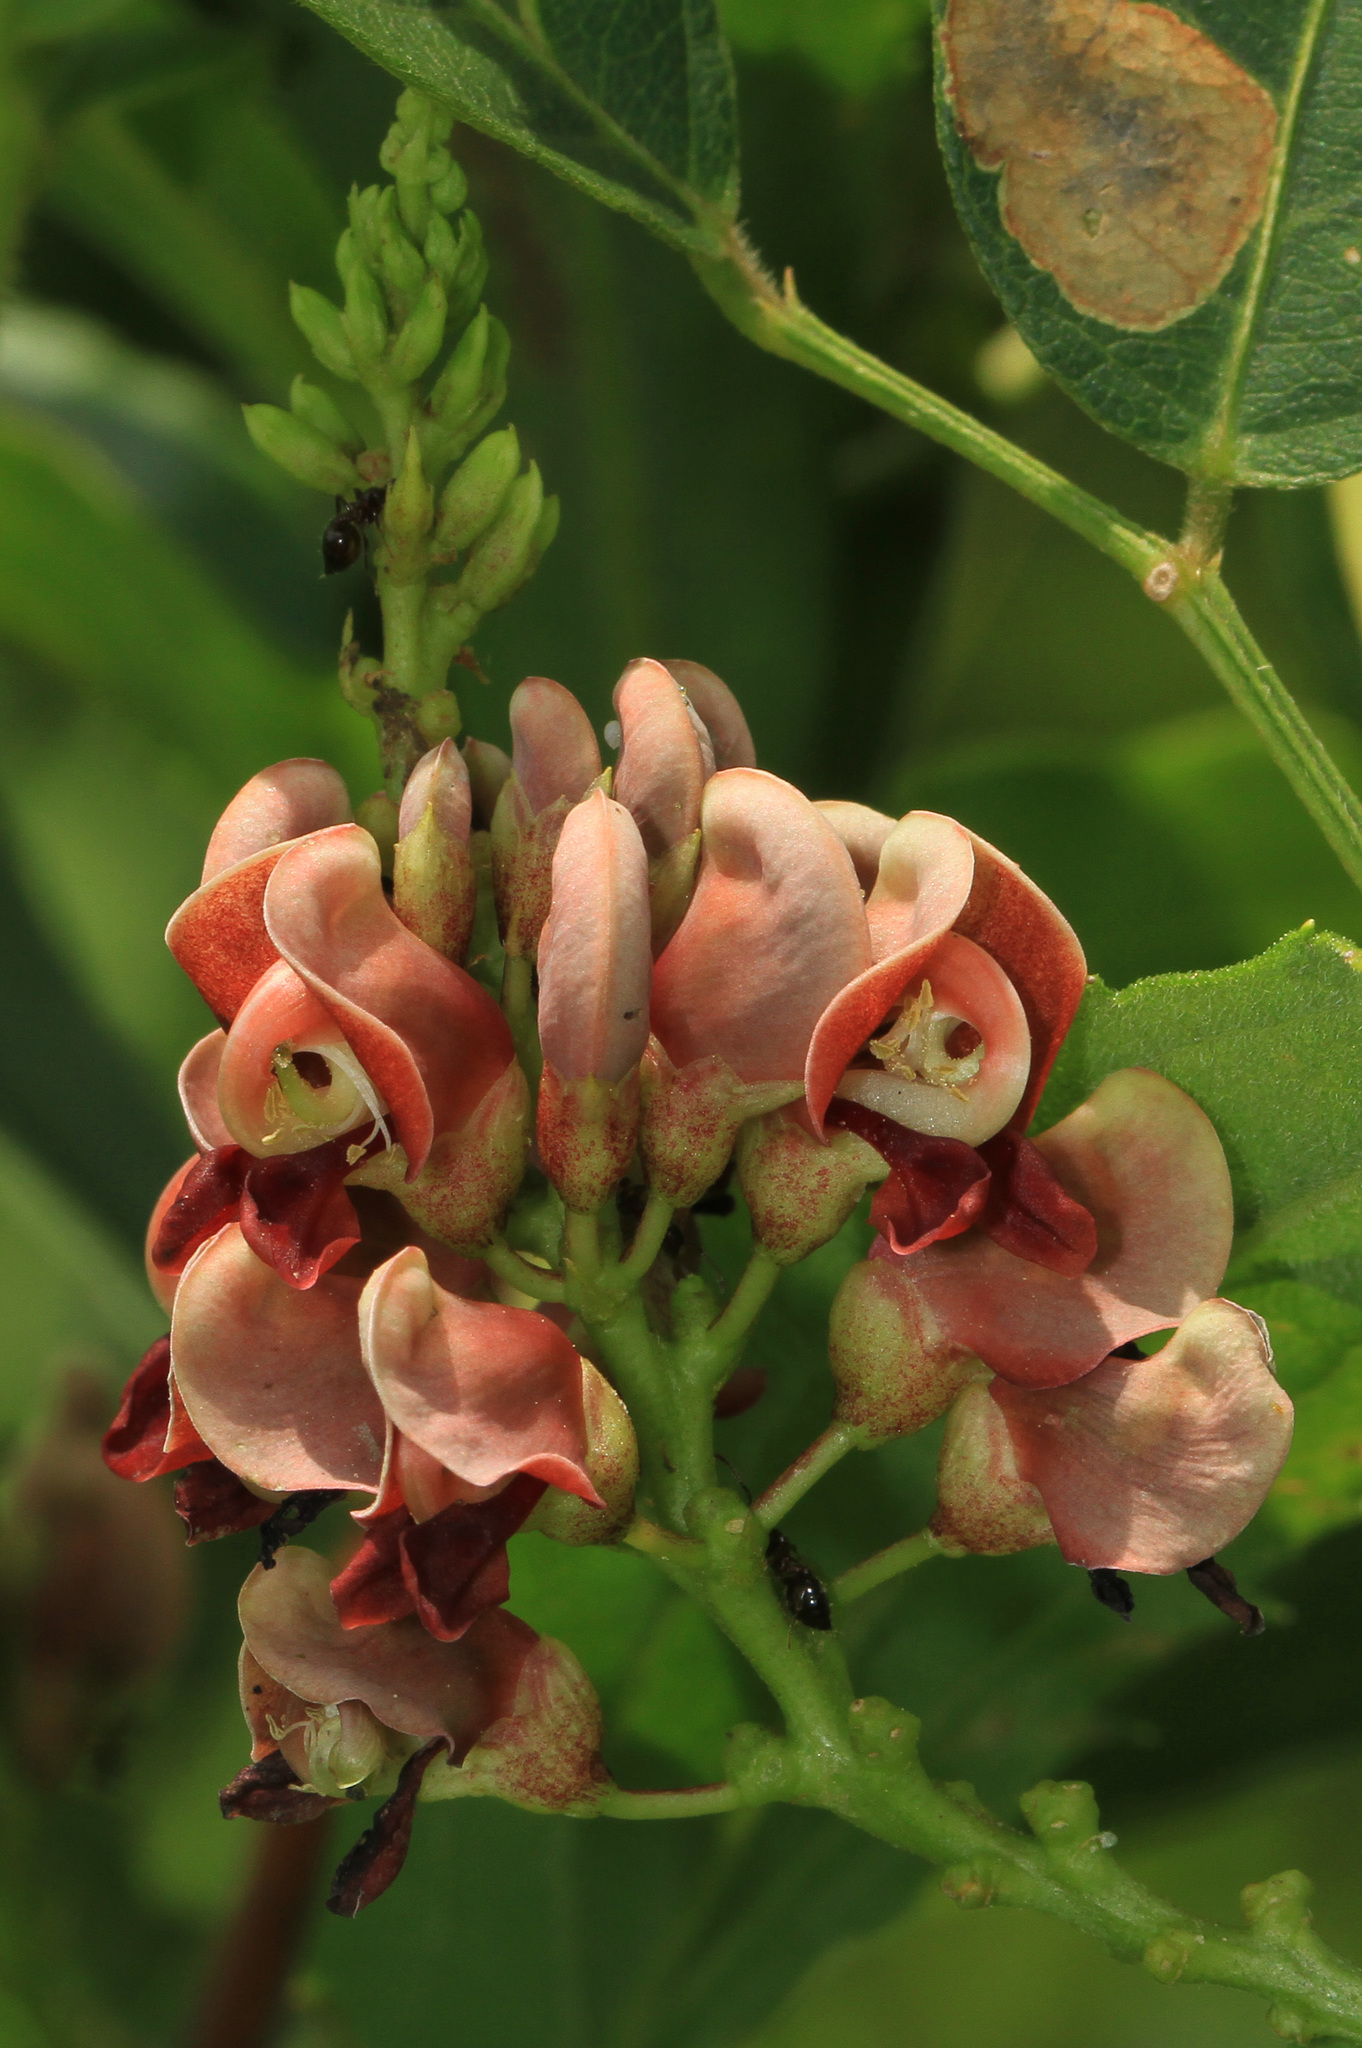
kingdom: Plantae
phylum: Tracheophyta
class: Magnoliopsida
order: Fabales
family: Fabaceae
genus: Apios
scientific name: Apios americana
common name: American potato-bean
